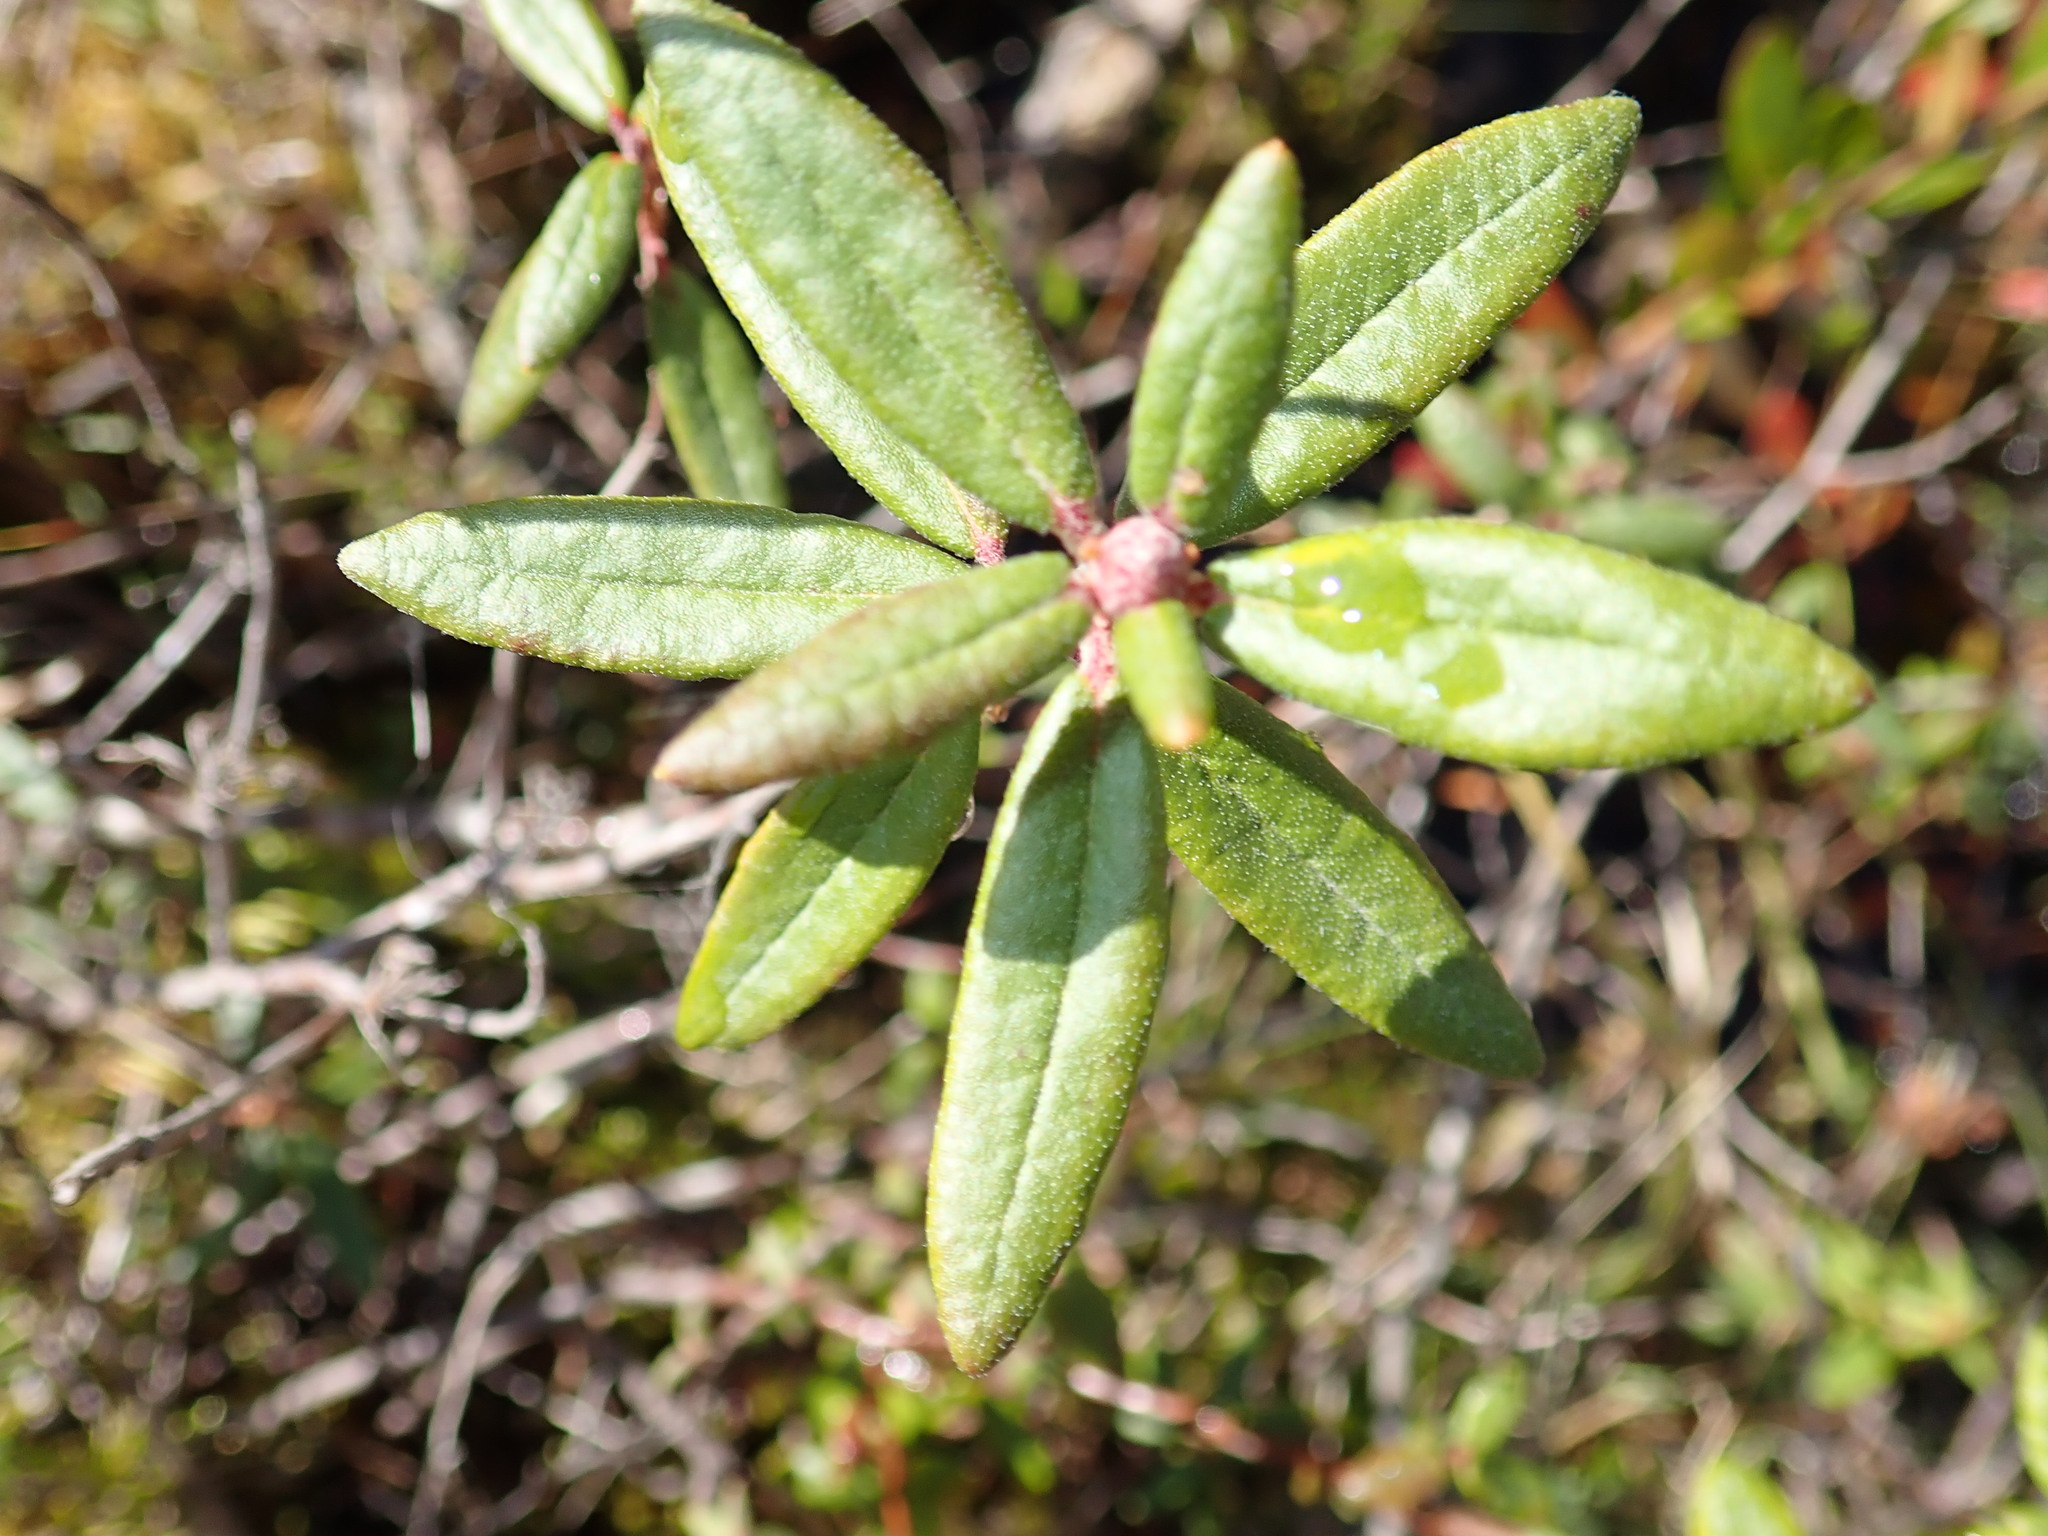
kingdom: Plantae
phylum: Tracheophyta
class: Magnoliopsida
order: Ericales
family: Ericaceae
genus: Rhododendron
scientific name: Rhododendron groenlandicum
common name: Bog labrador tea
